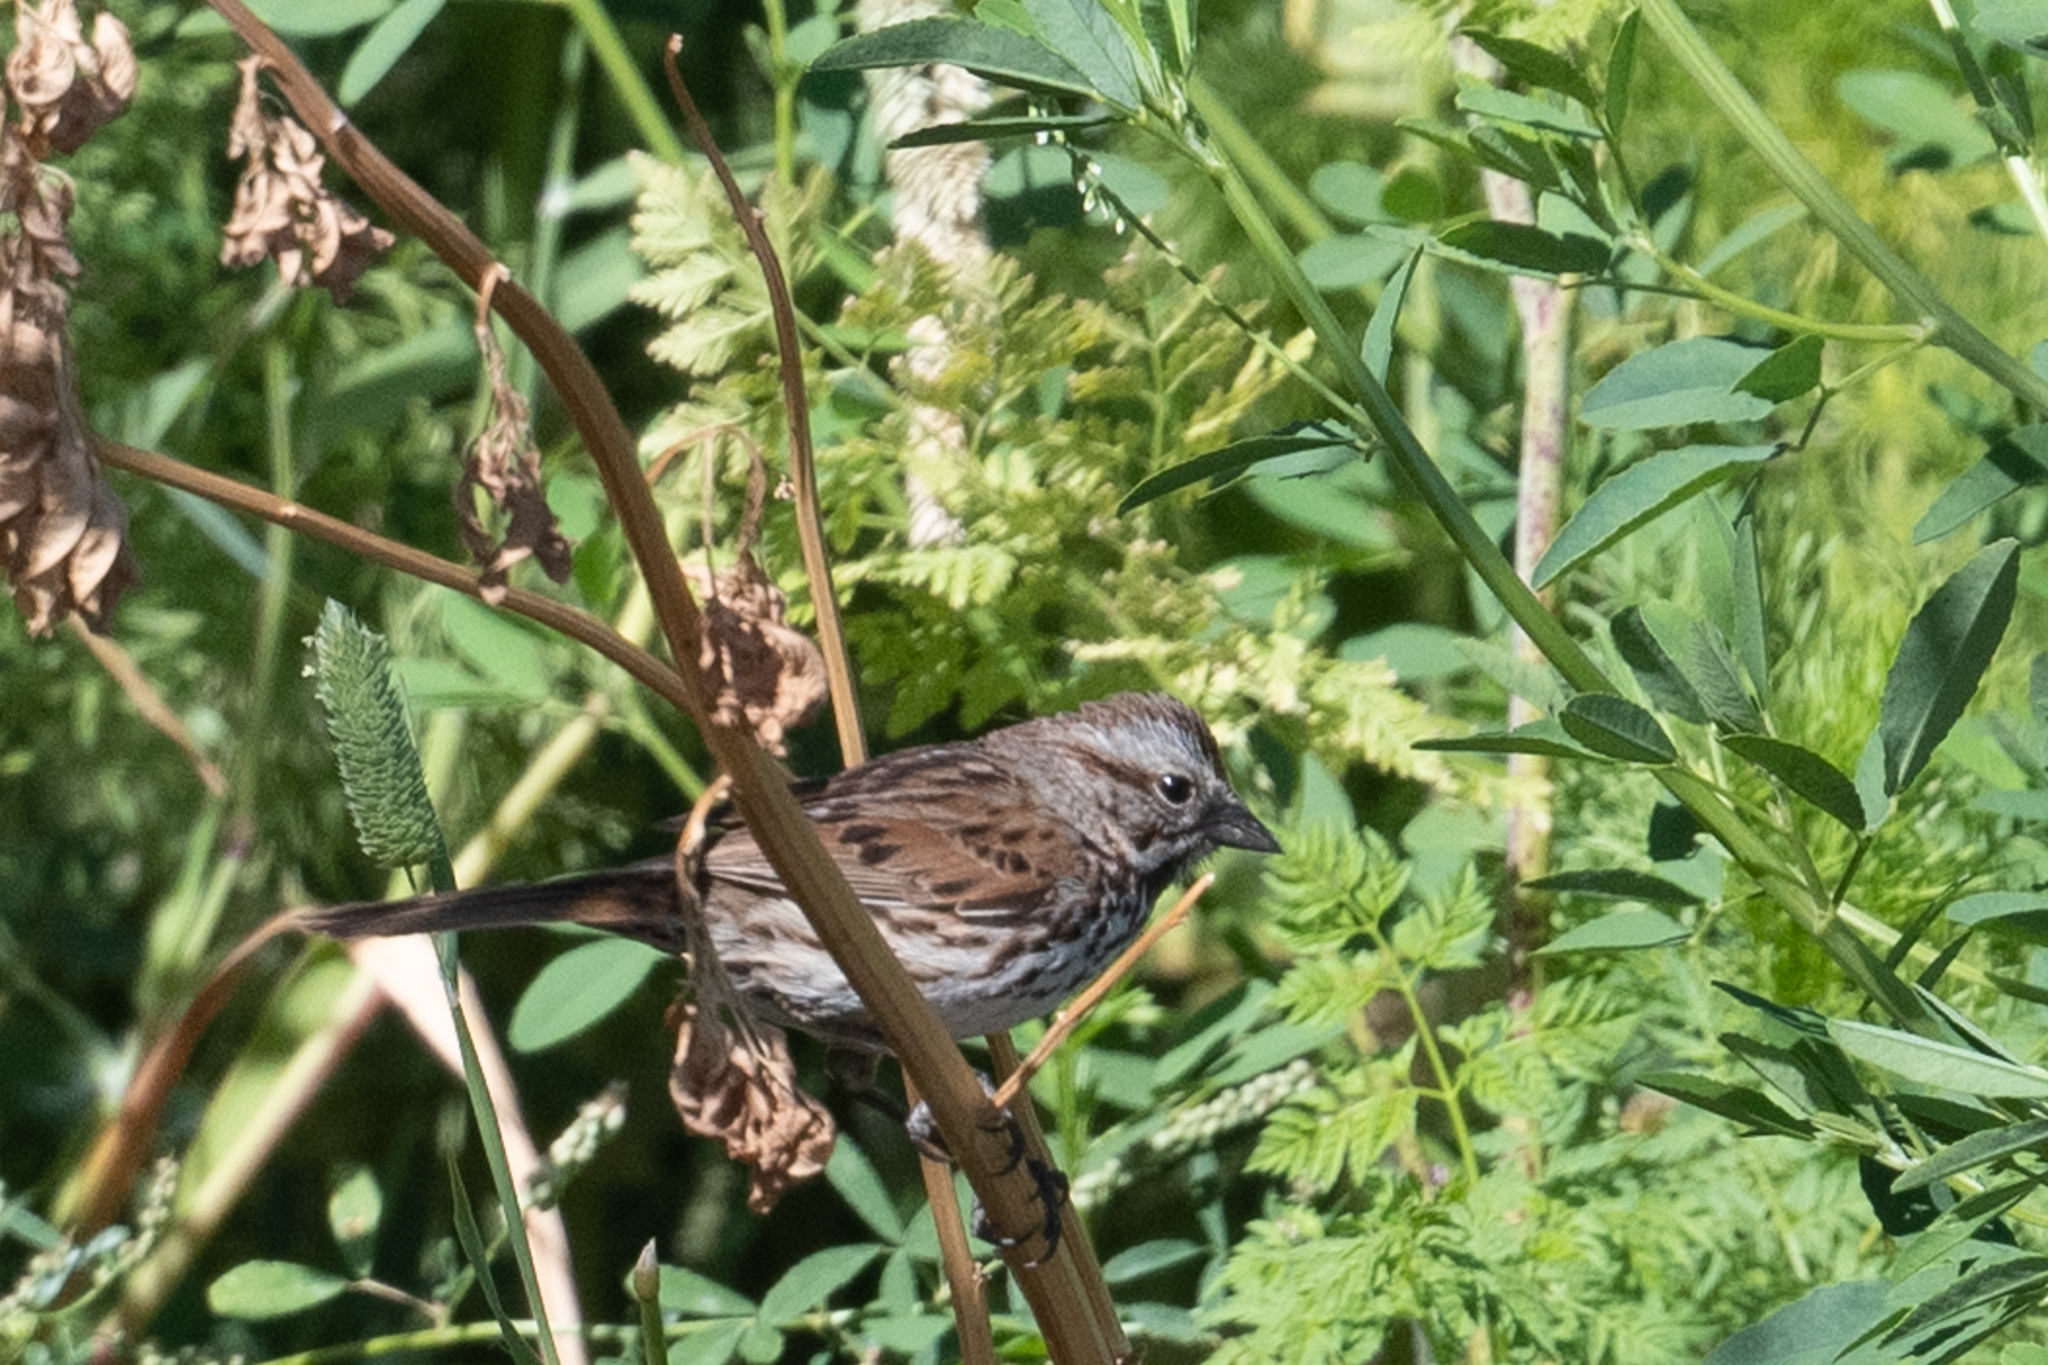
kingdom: Animalia
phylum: Chordata
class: Aves
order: Passeriformes
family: Passerellidae
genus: Melospiza
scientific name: Melospiza melodia
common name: Song sparrow
